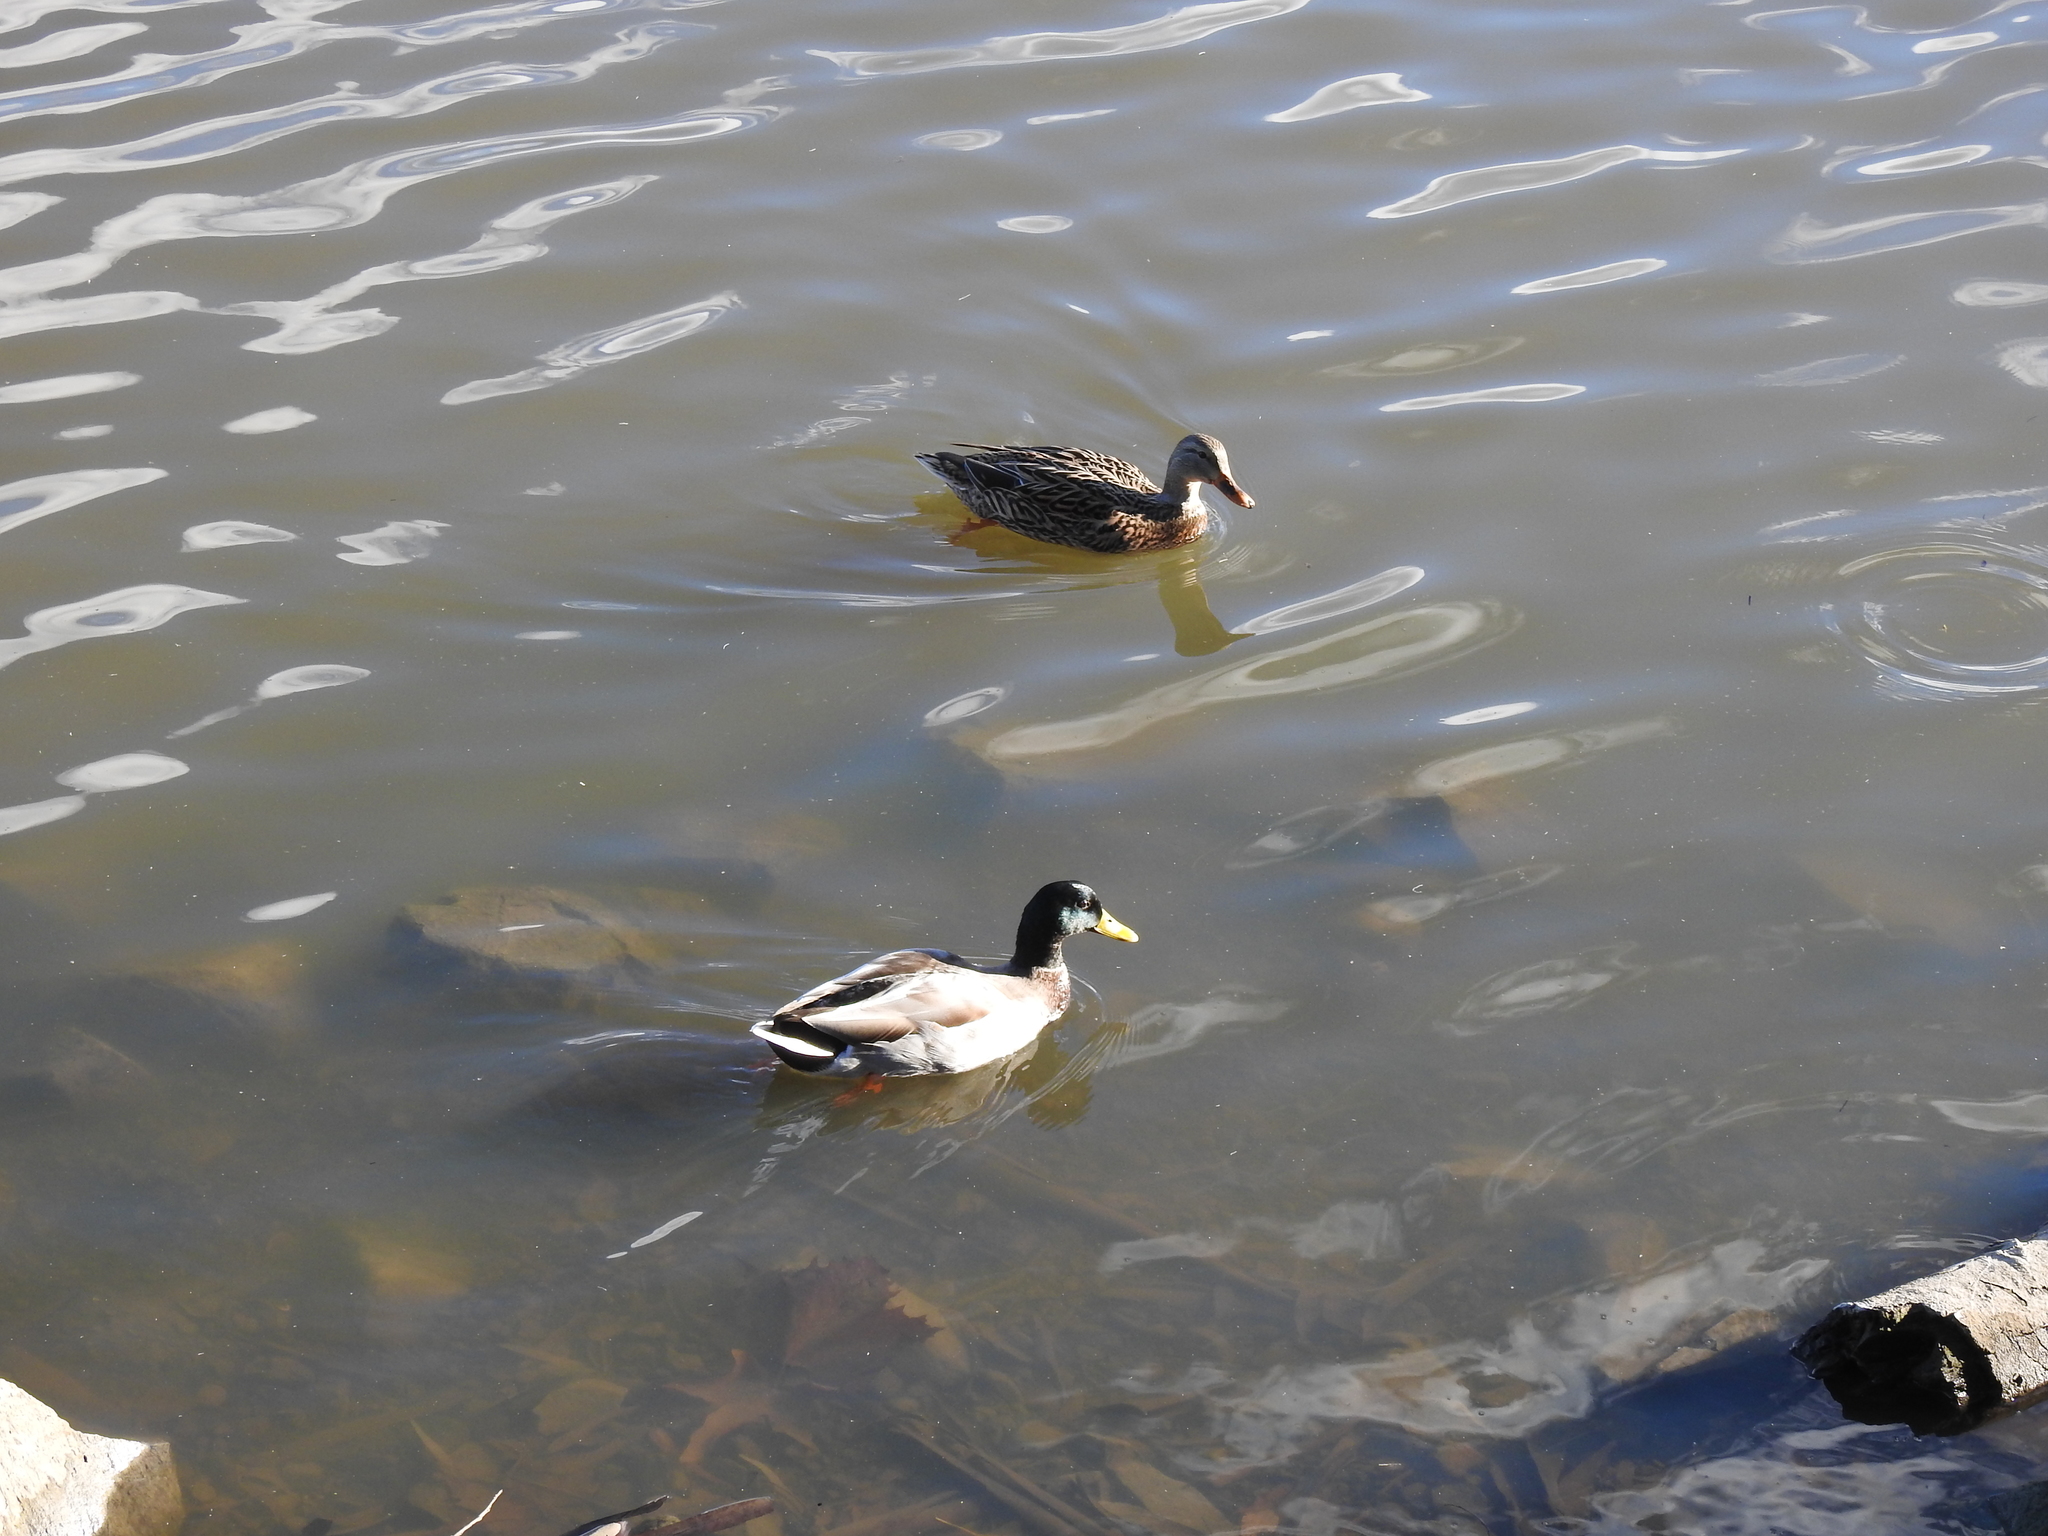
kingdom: Animalia
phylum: Chordata
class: Aves
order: Anseriformes
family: Anatidae
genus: Anas
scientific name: Anas platyrhynchos
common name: Mallard
